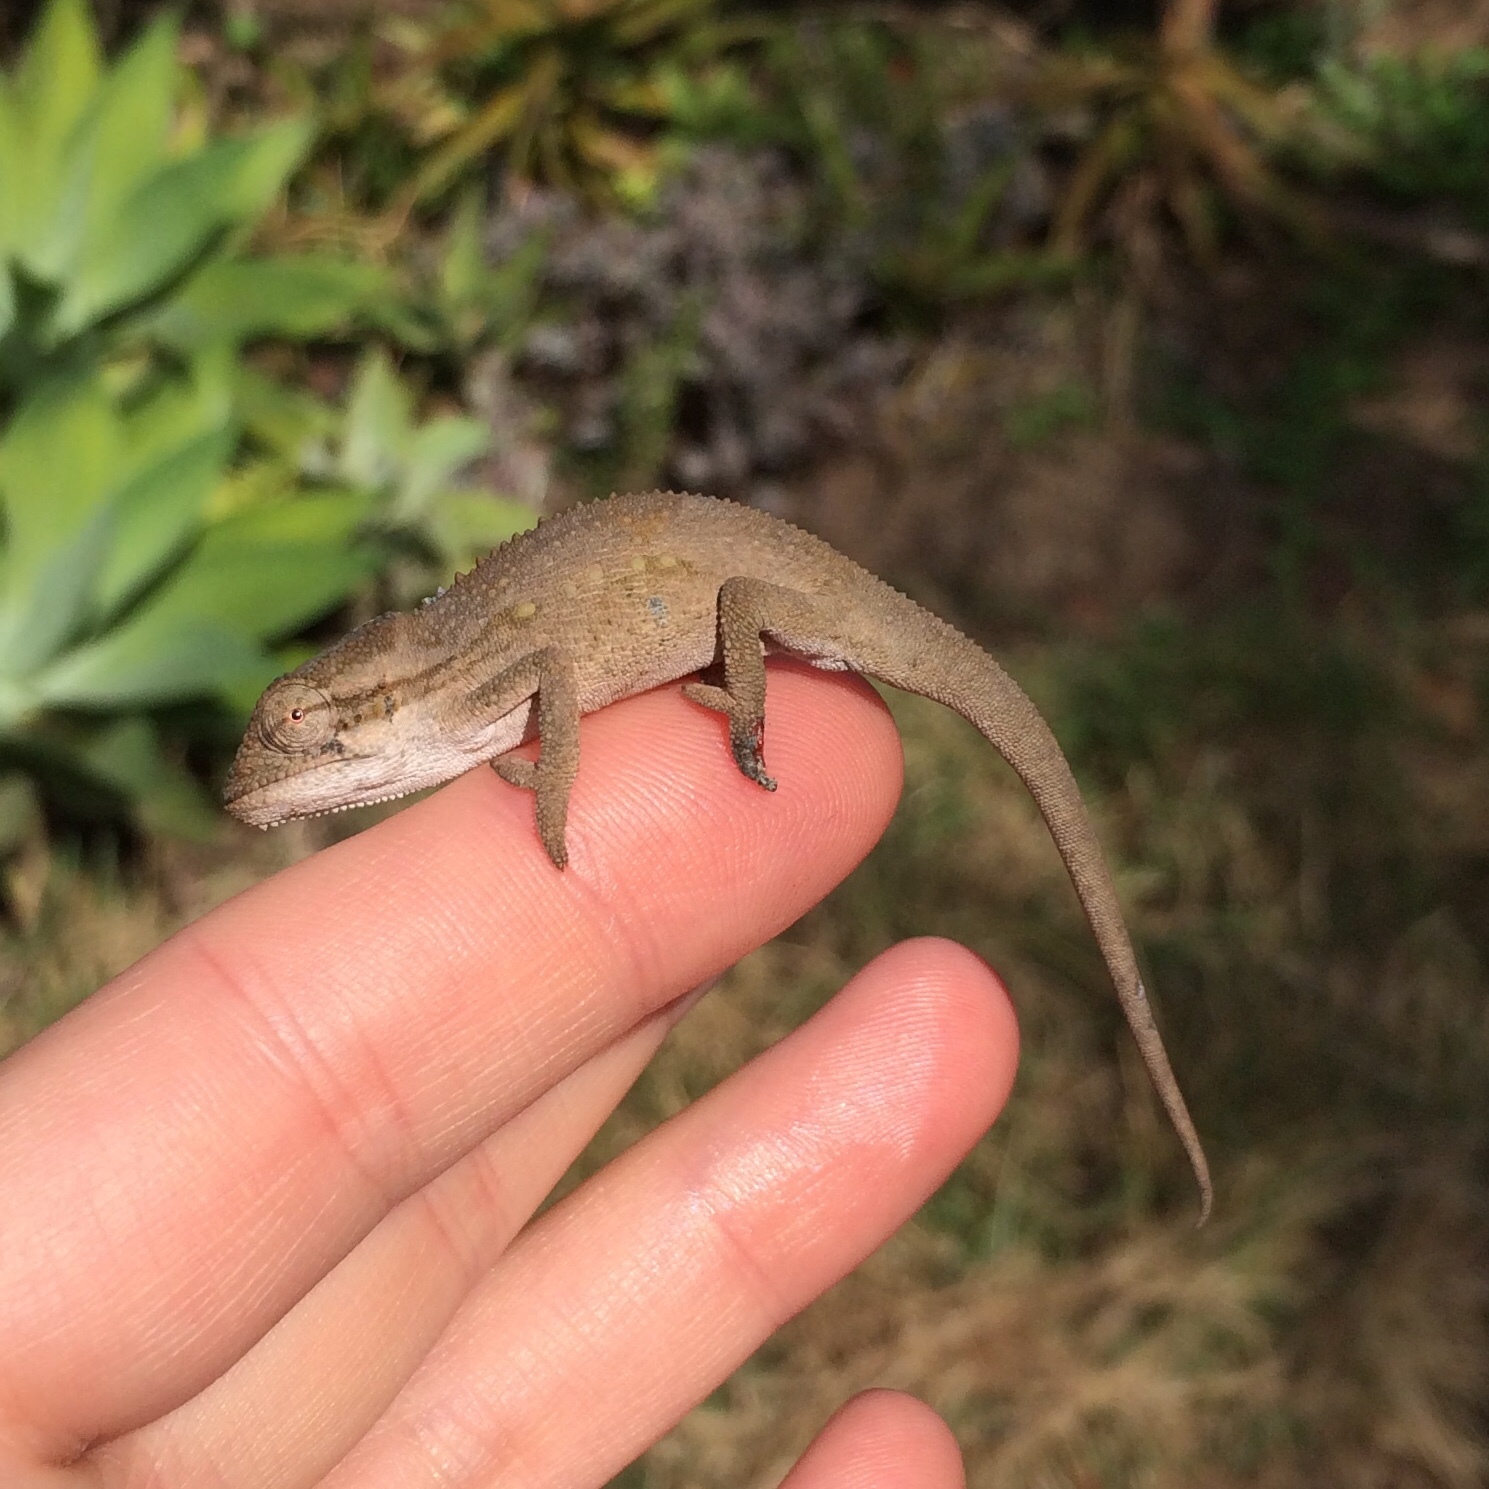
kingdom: Animalia
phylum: Chordata
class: Squamata
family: Chamaeleonidae
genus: Bradypodion
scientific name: Bradypodion melanocephalum
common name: Black-headed dwarf chameleon
